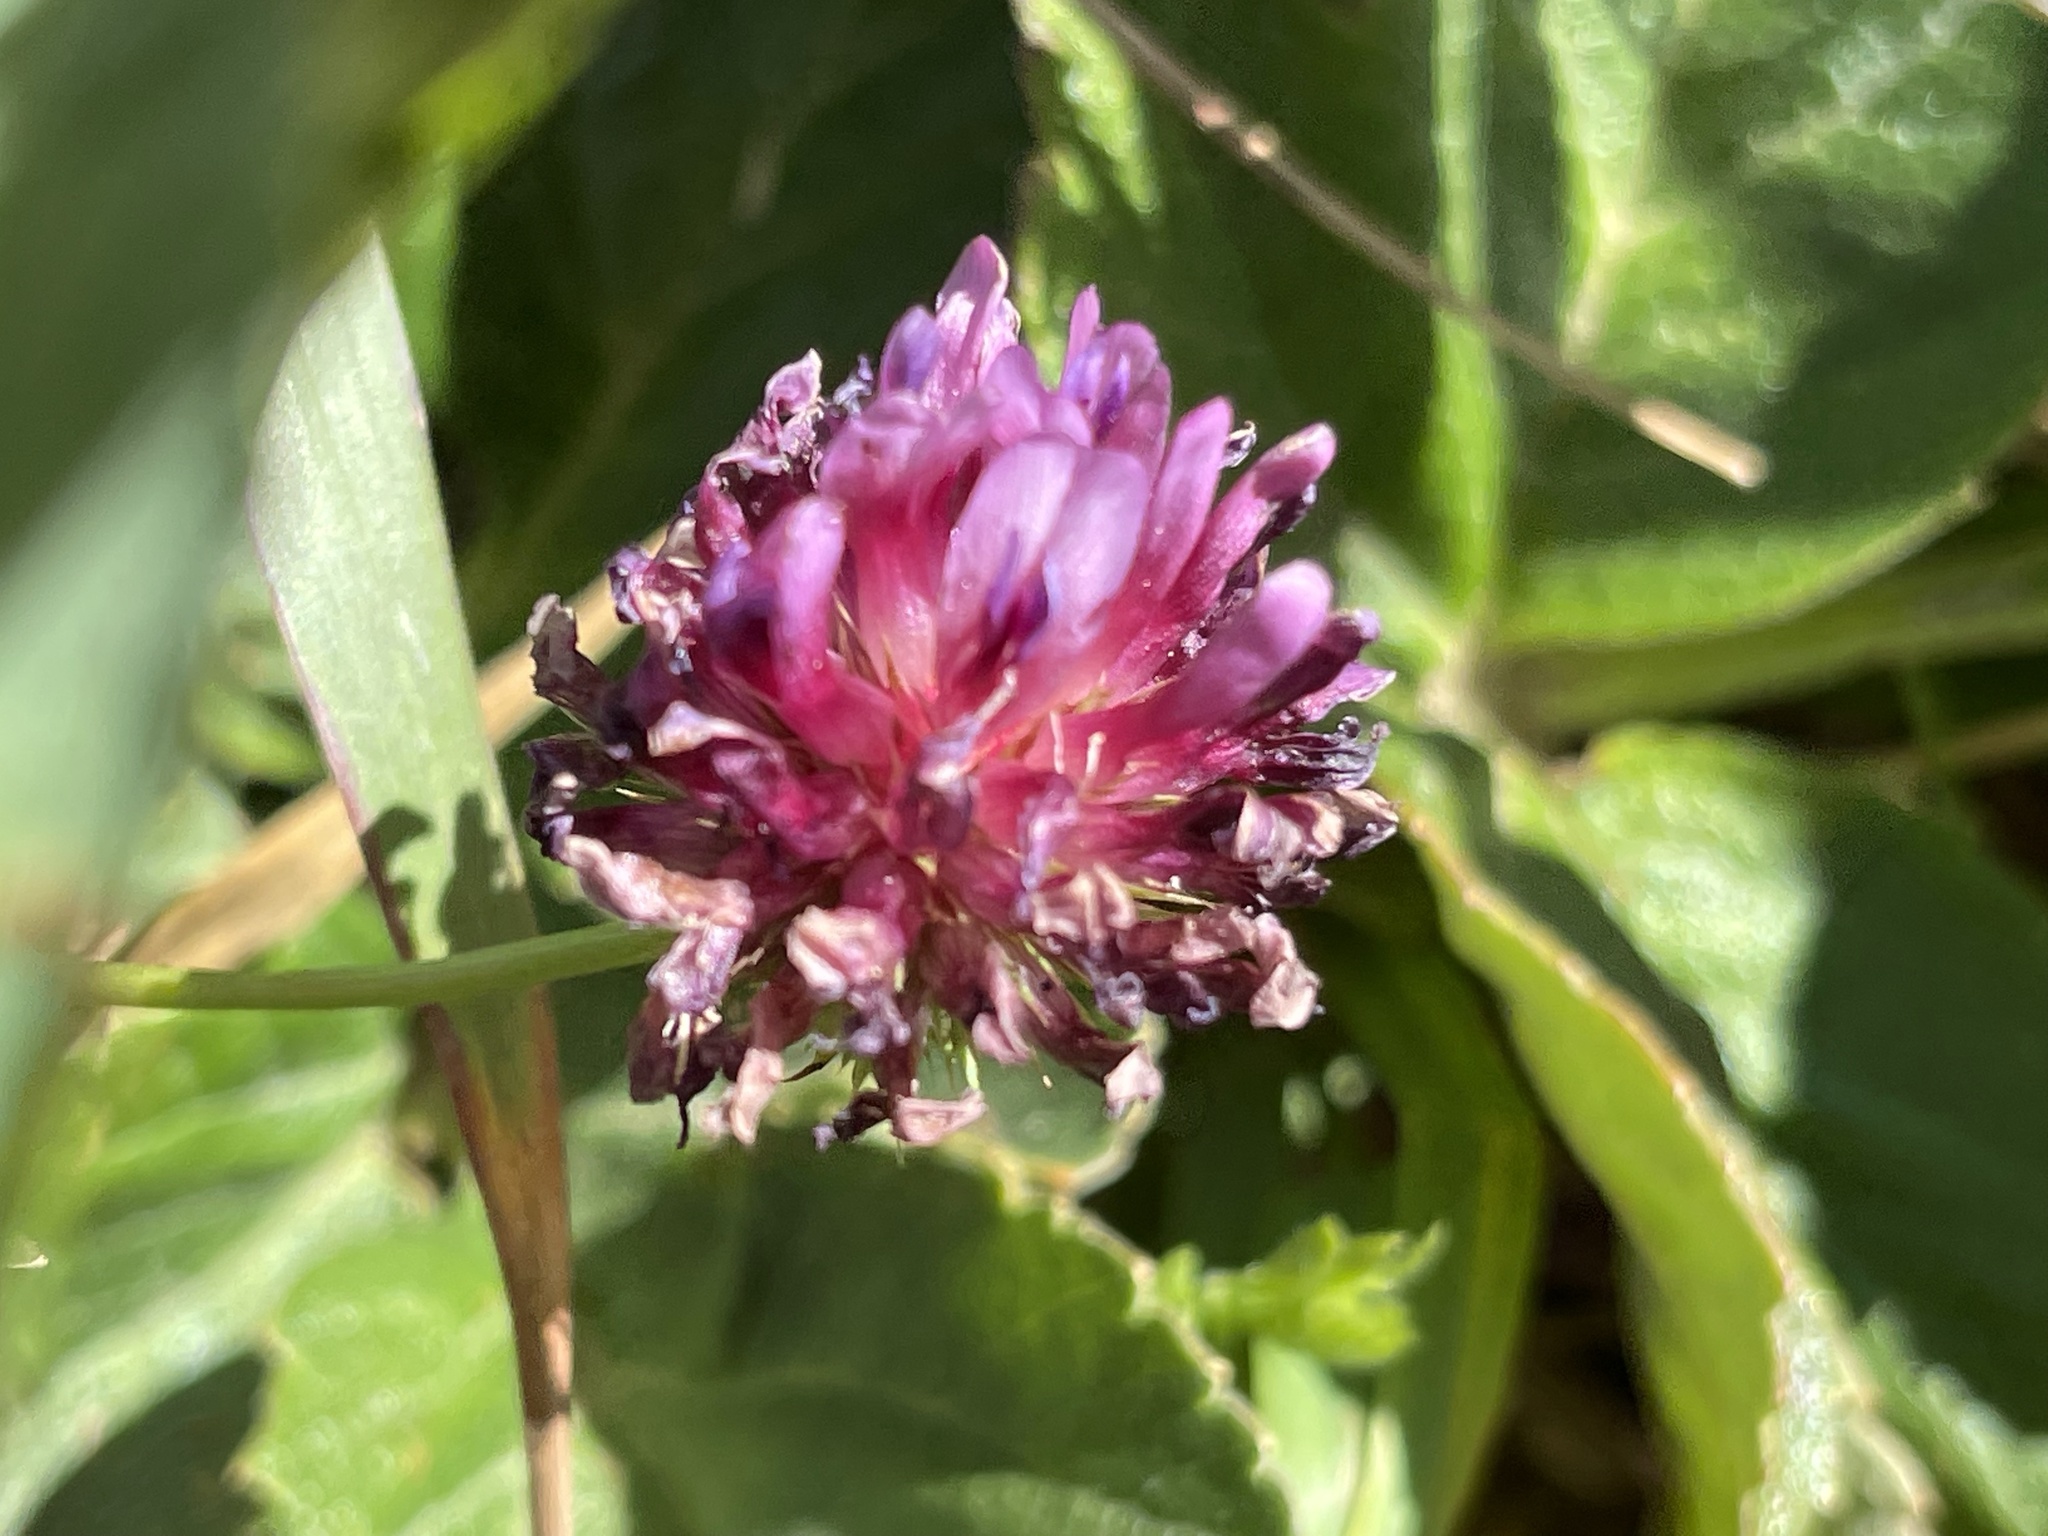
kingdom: Plantae
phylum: Tracheophyta
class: Magnoliopsida
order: Fabales
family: Fabaceae
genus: Trifolium
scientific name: Trifolium wormskioldii
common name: Springbank clover
